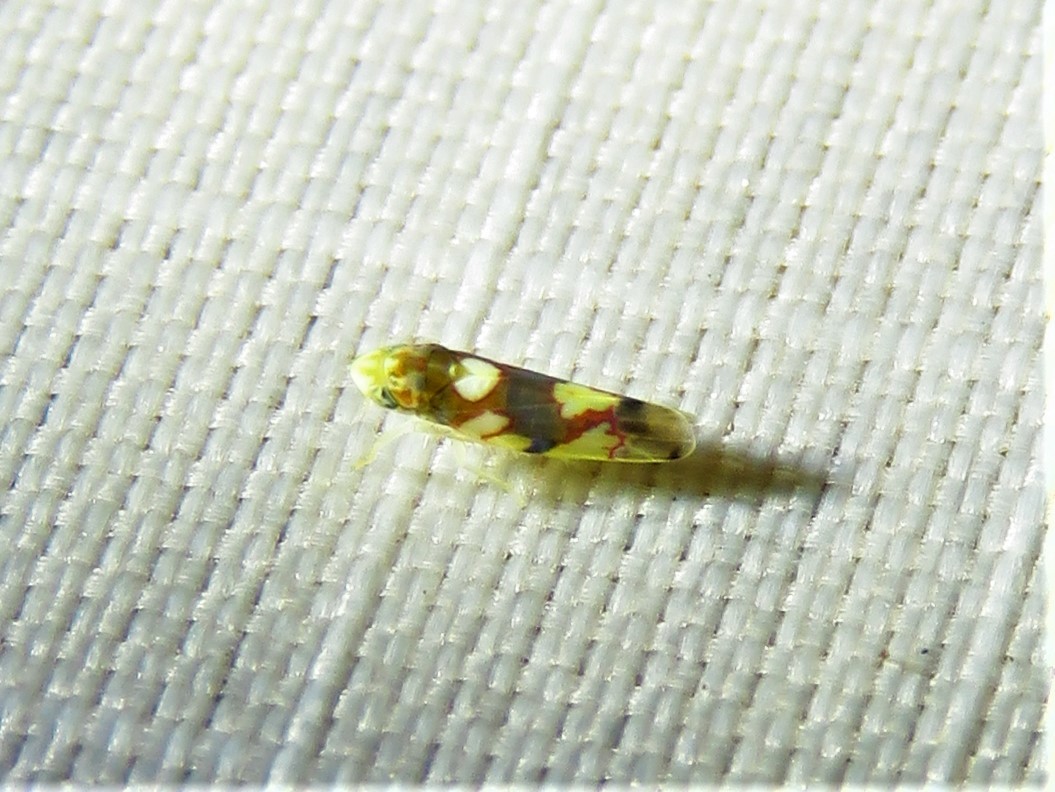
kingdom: Animalia
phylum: Arthropoda
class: Insecta
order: Hemiptera
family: Cicadellidae
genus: Erythroneura
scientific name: Erythroneura elegans
